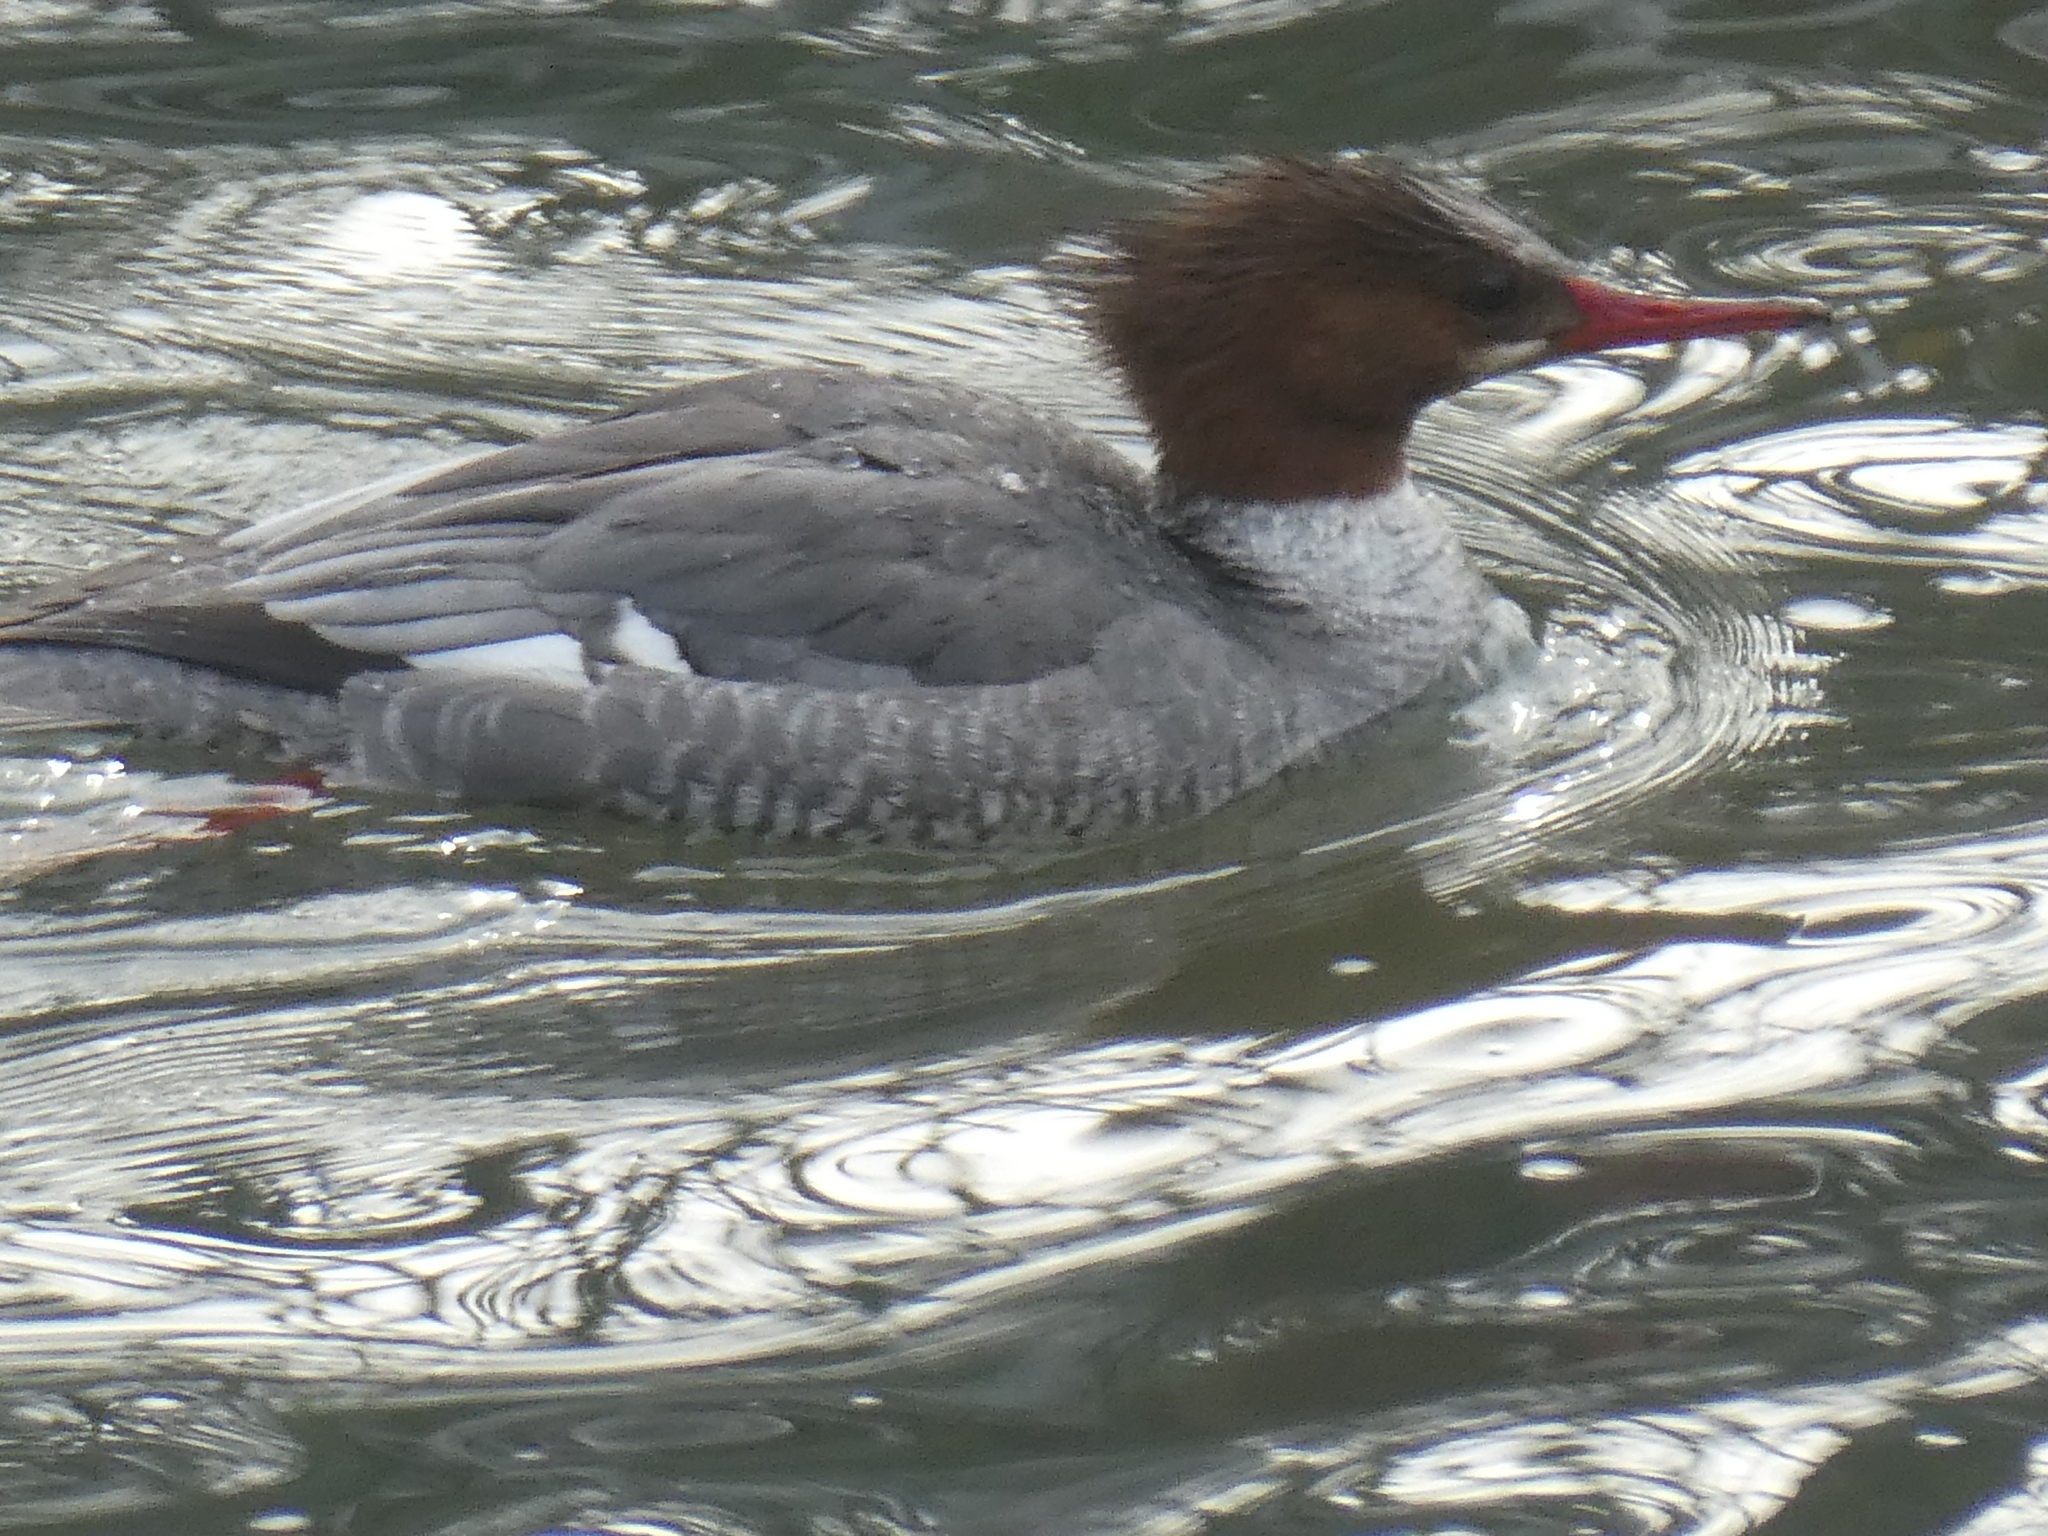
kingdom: Animalia
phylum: Chordata
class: Aves
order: Anseriformes
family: Anatidae
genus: Mergus
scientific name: Mergus merganser
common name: Common merganser
